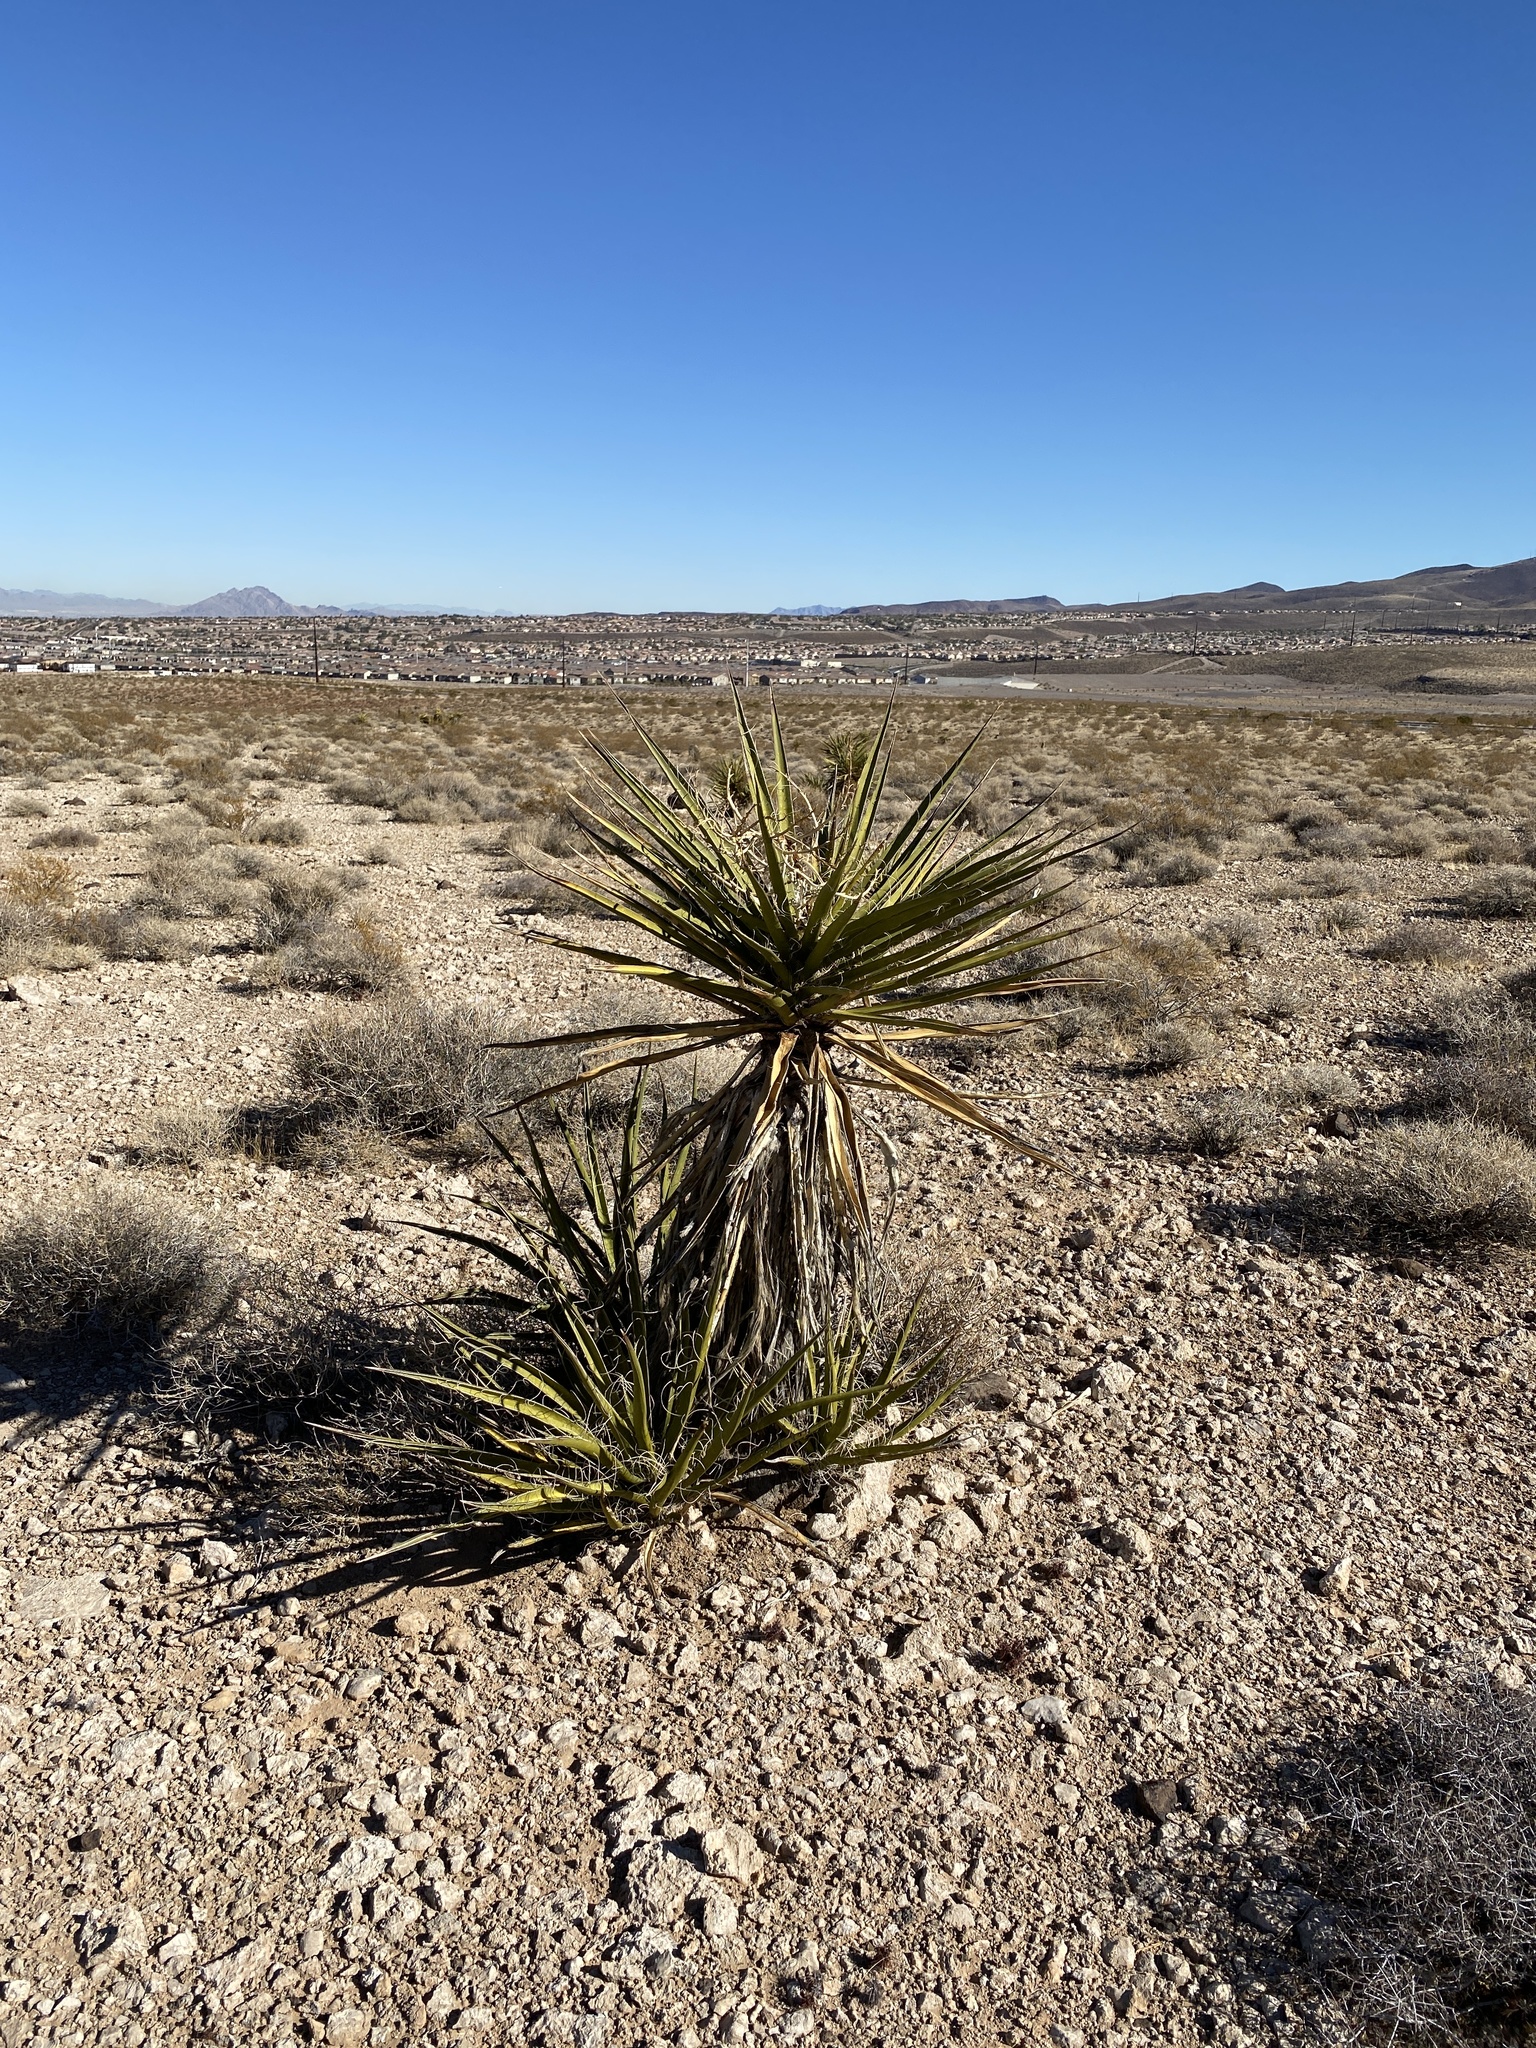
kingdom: Plantae
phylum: Tracheophyta
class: Liliopsida
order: Asparagales
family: Asparagaceae
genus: Yucca
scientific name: Yucca schidigera
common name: Mojave yucca
